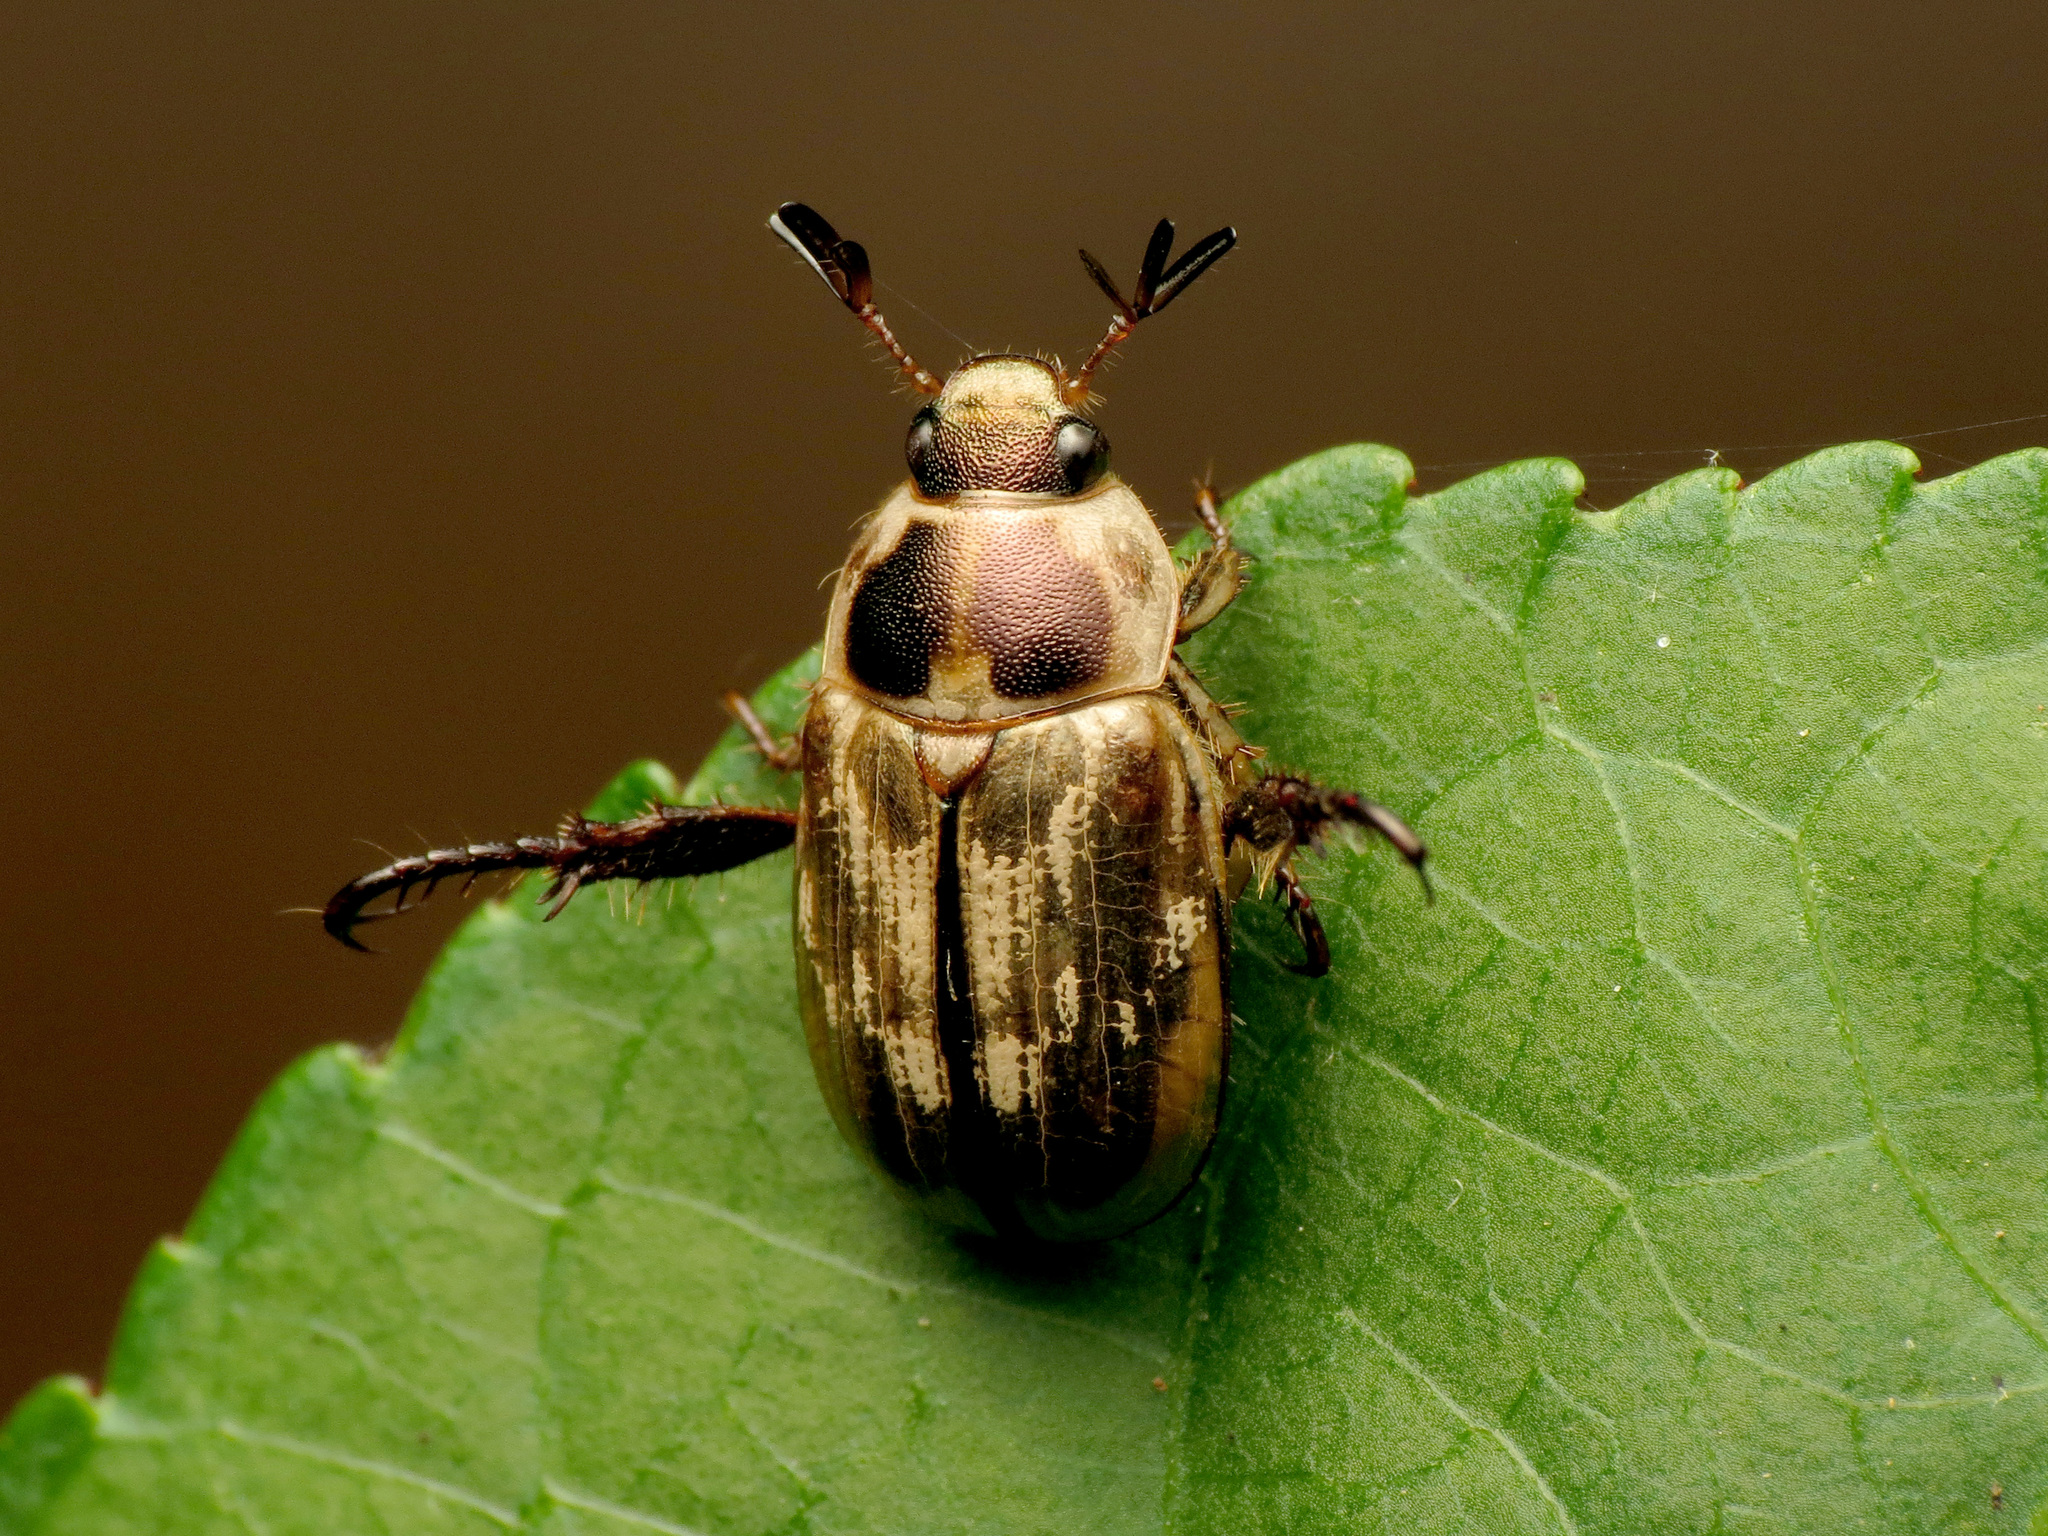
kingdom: Animalia
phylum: Arthropoda
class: Insecta
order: Coleoptera
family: Scarabaeidae
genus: Exomala
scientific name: Exomala orientalis
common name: Oriental beetle
